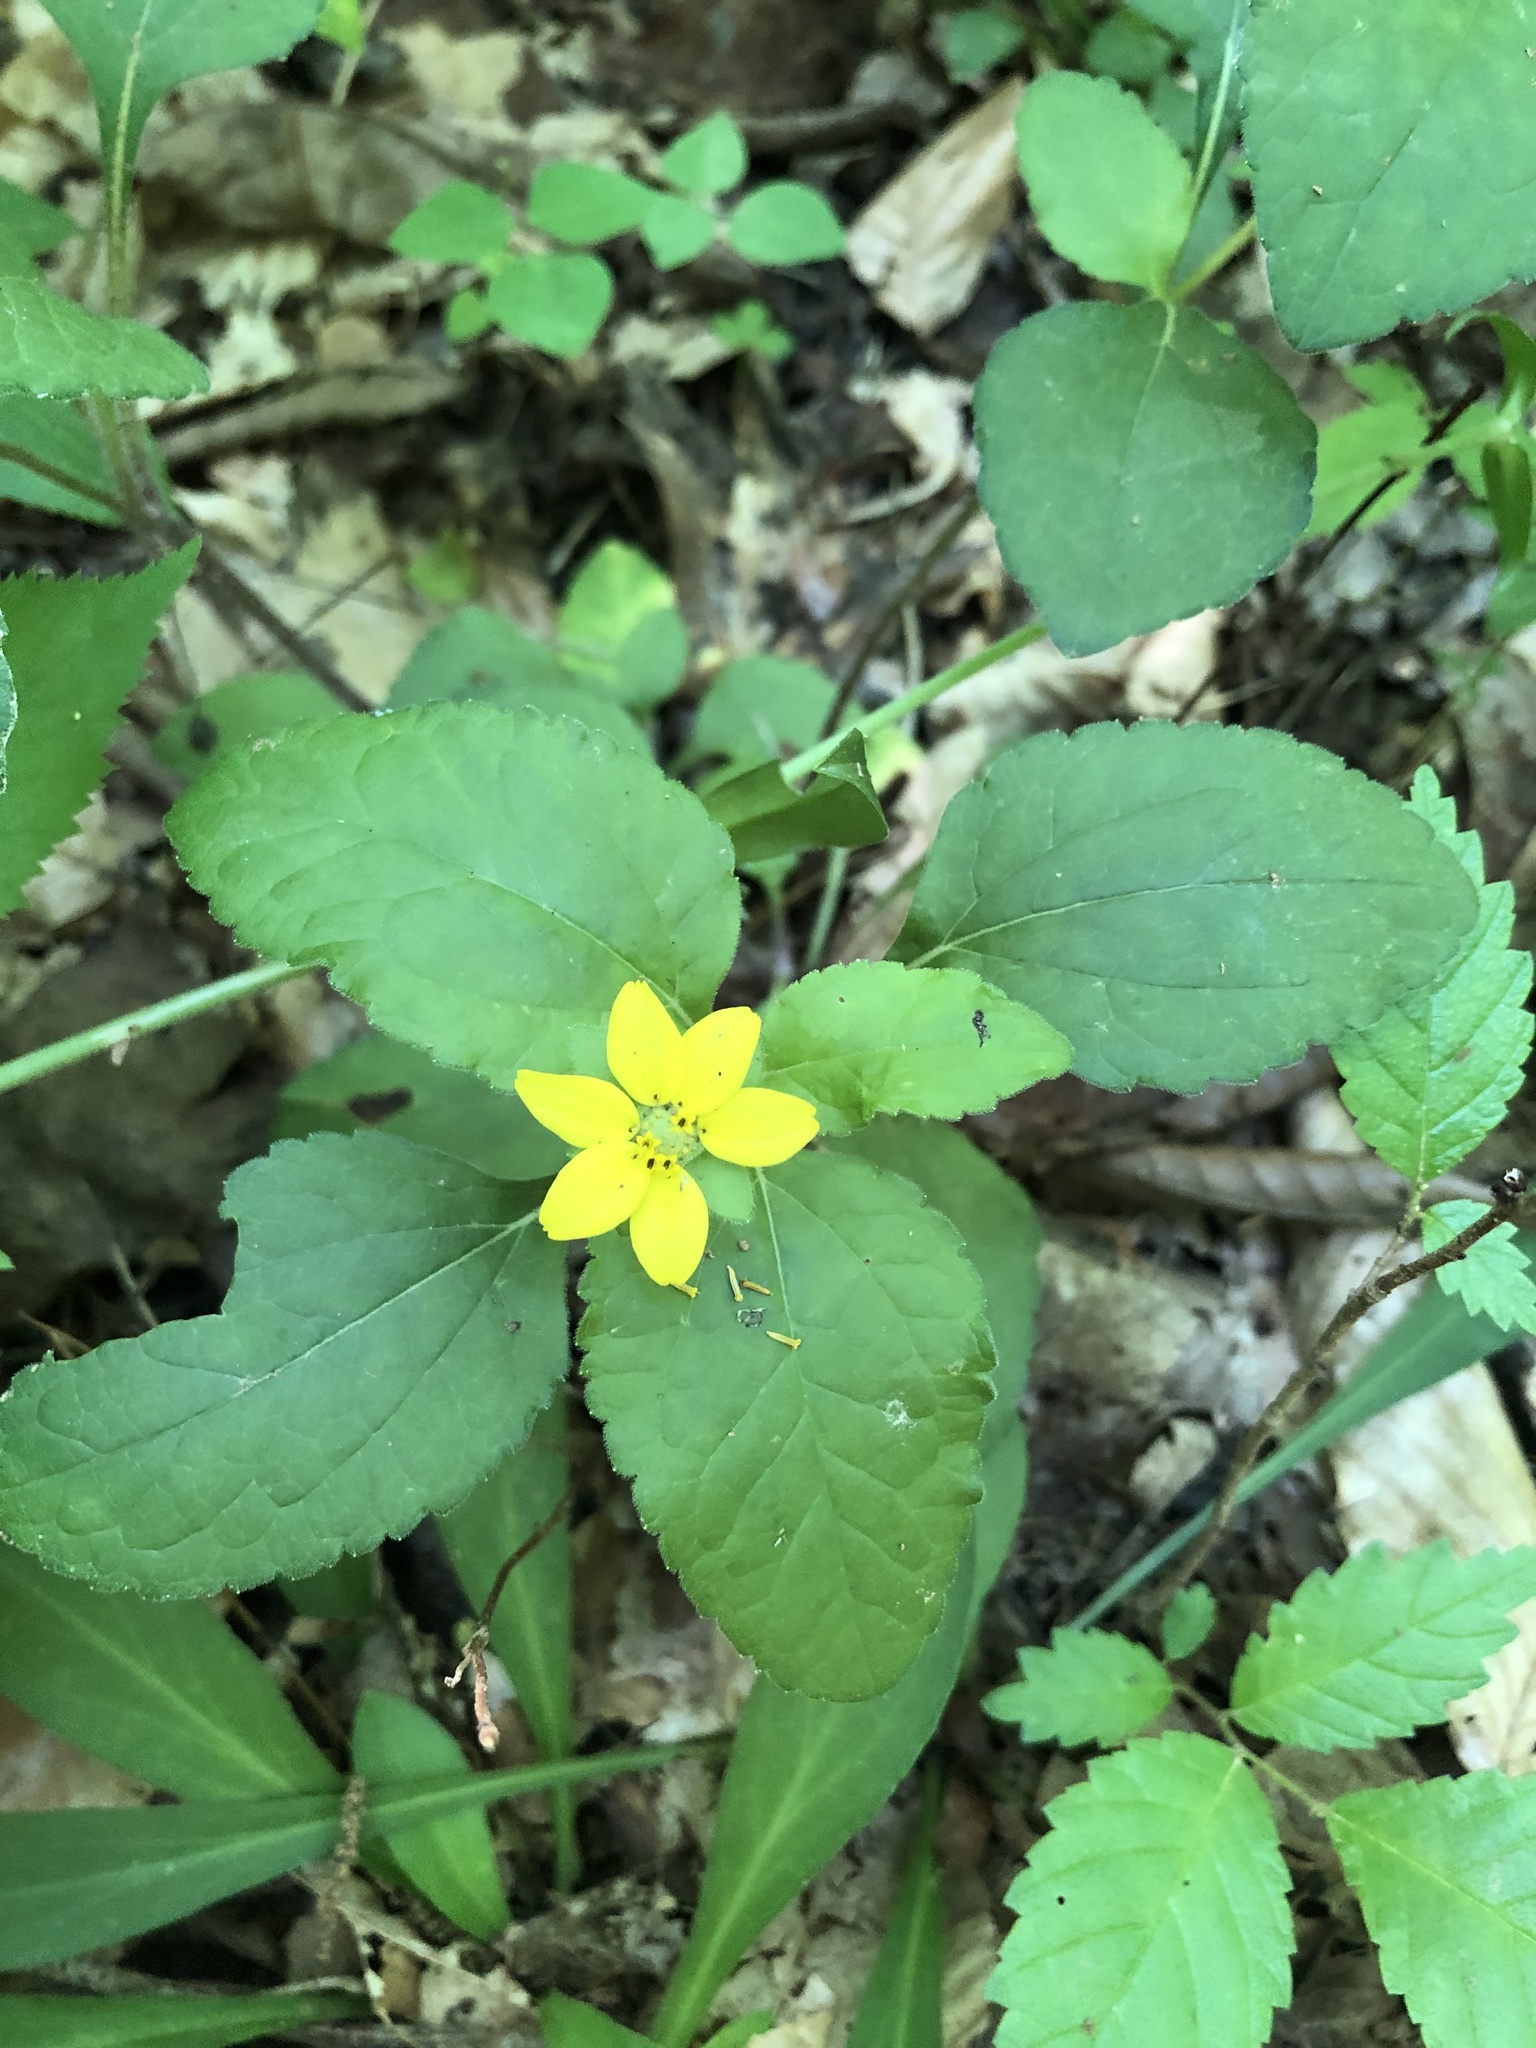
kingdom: Plantae
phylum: Tracheophyta
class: Magnoliopsida
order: Asterales
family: Asteraceae
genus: Chrysogonum
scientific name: Chrysogonum virginianum
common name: Golden-knee
